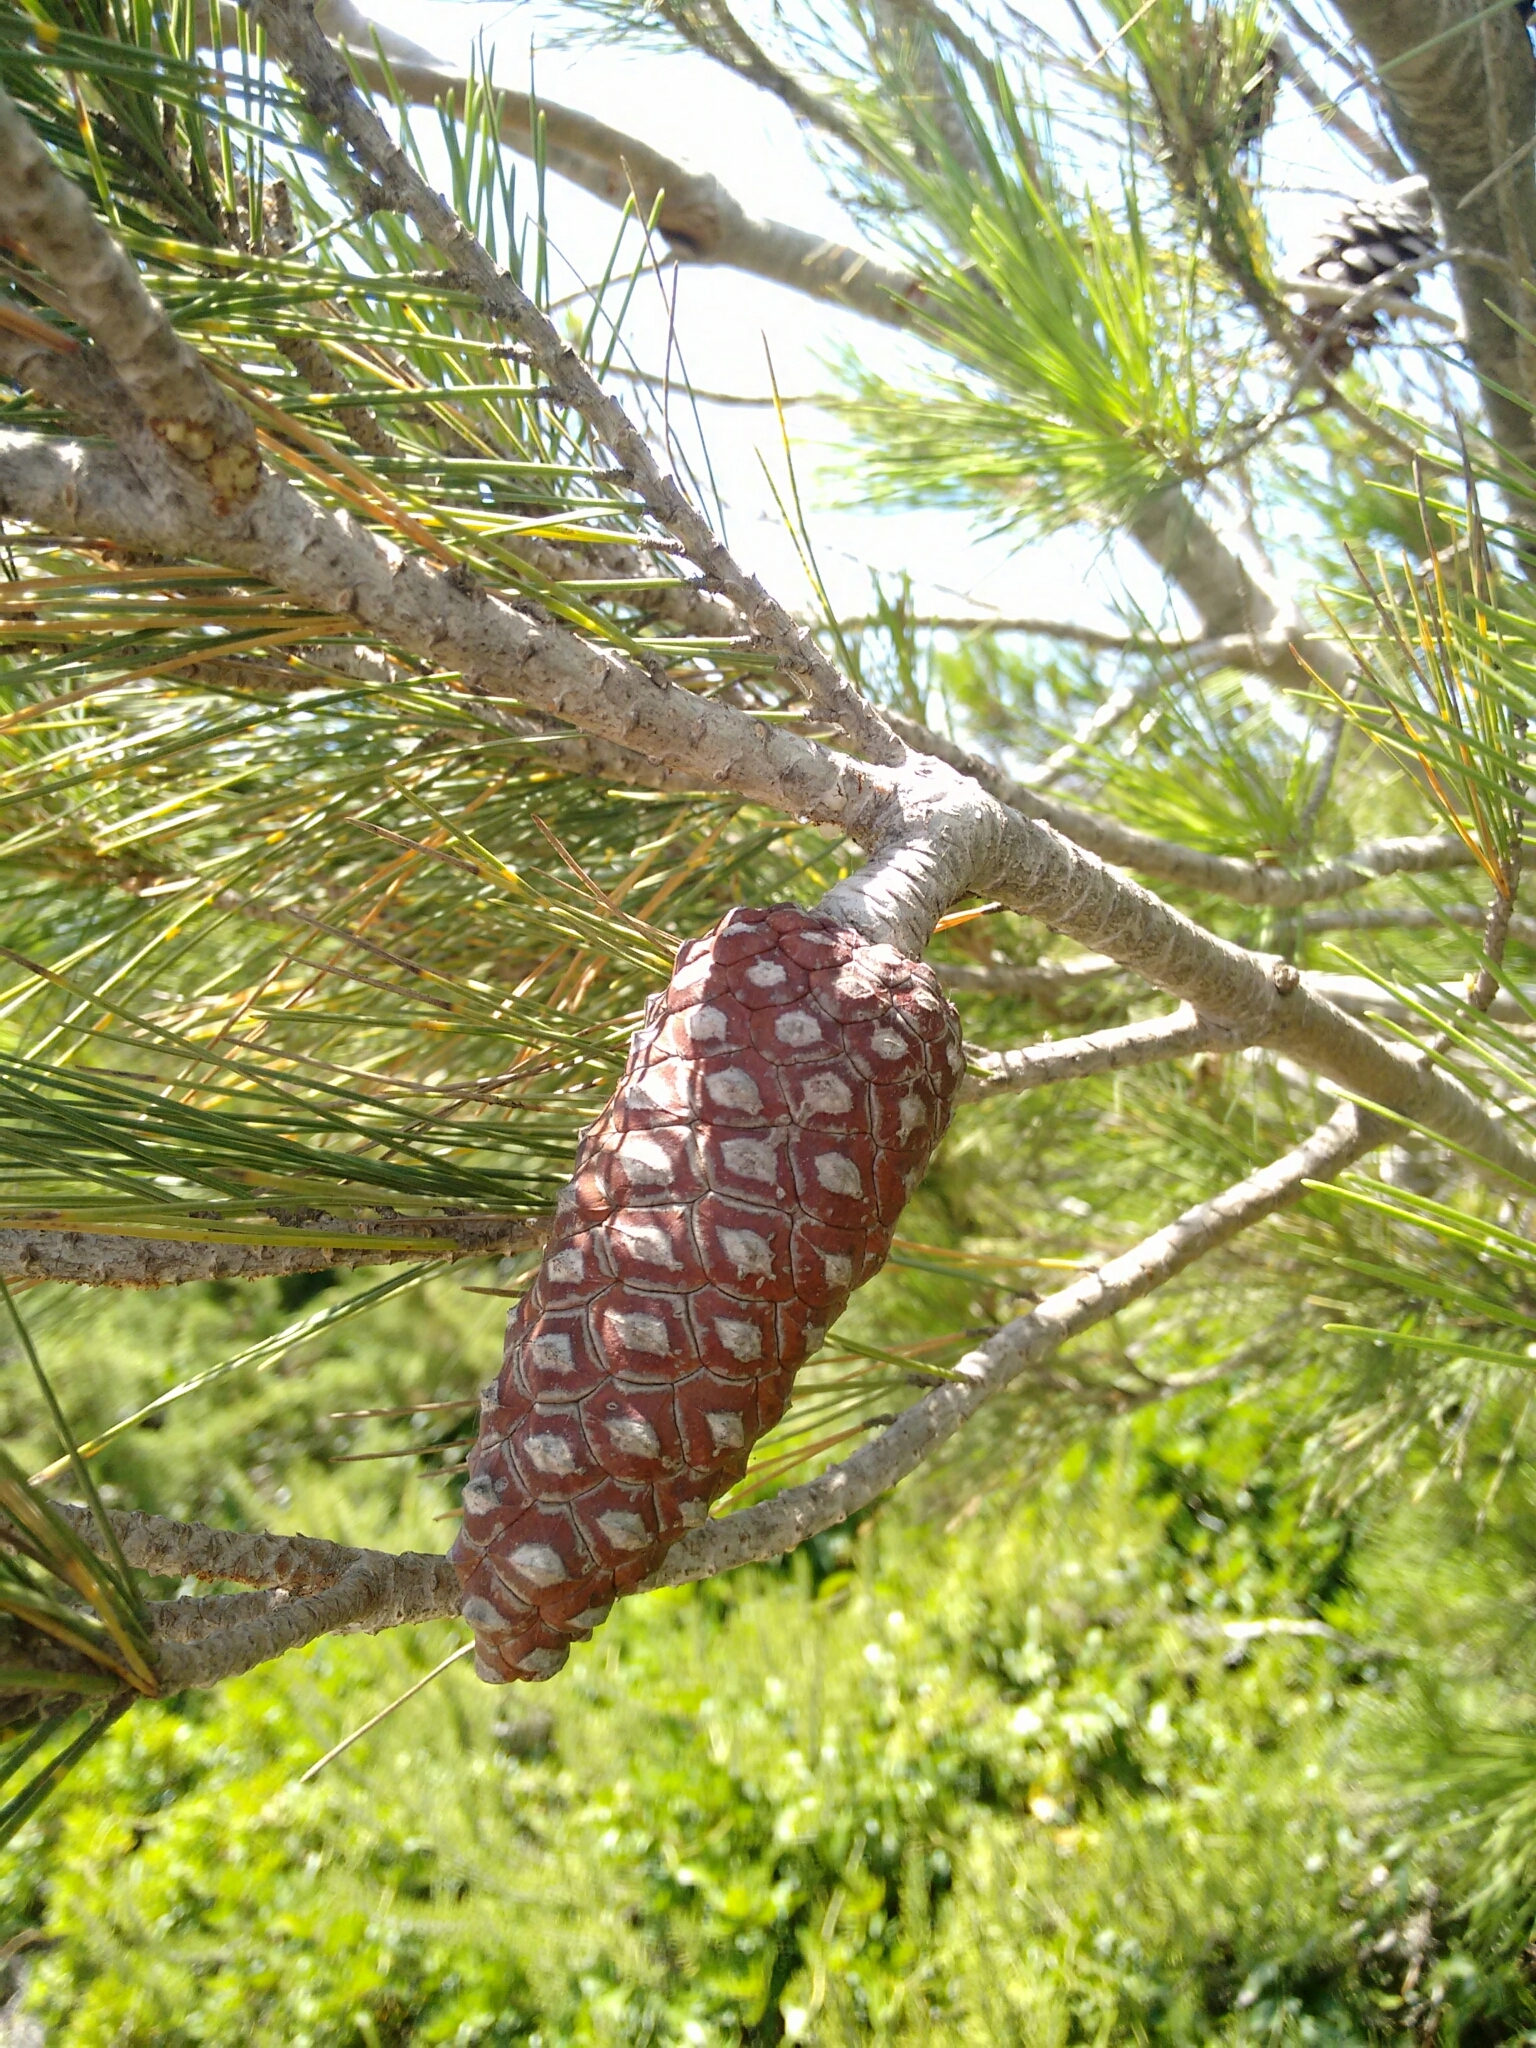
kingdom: Plantae
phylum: Tracheophyta
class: Pinopsida
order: Pinales
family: Pinaceae
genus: Pinus
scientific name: Pinus halepensis
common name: Aleppo pine
